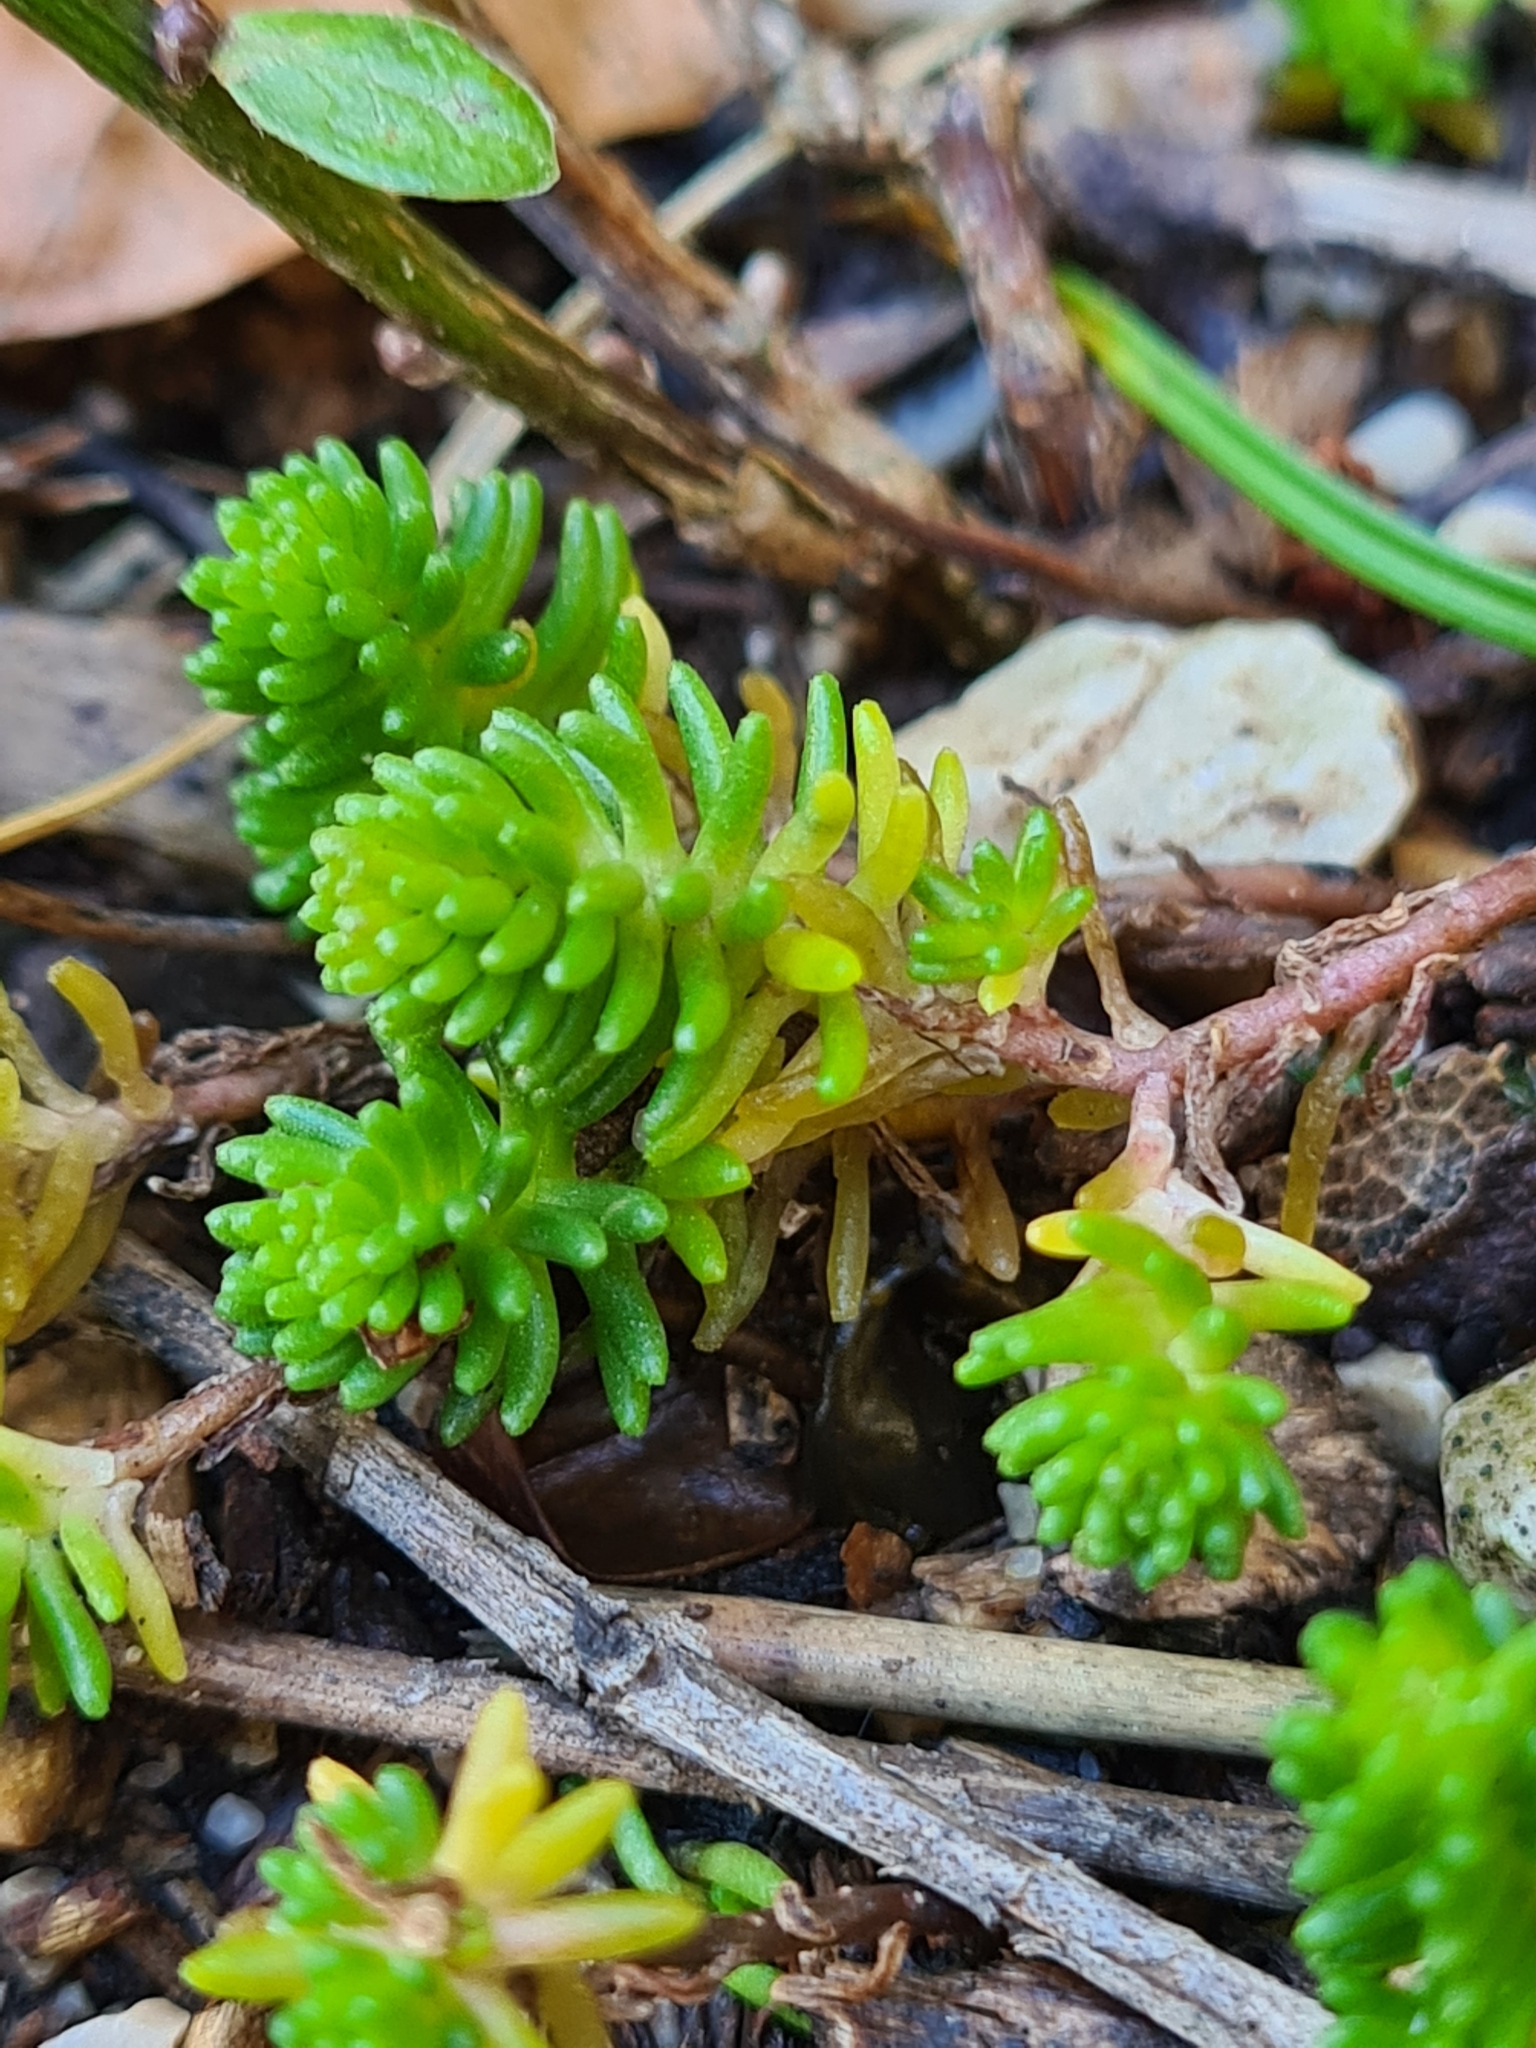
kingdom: Plantae
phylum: Tracheophyta
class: Magnoliopsida
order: Saxifragales
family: Crassulaceae
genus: Sedum
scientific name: Sedum sexangulare
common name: Tasteless stonecrop
